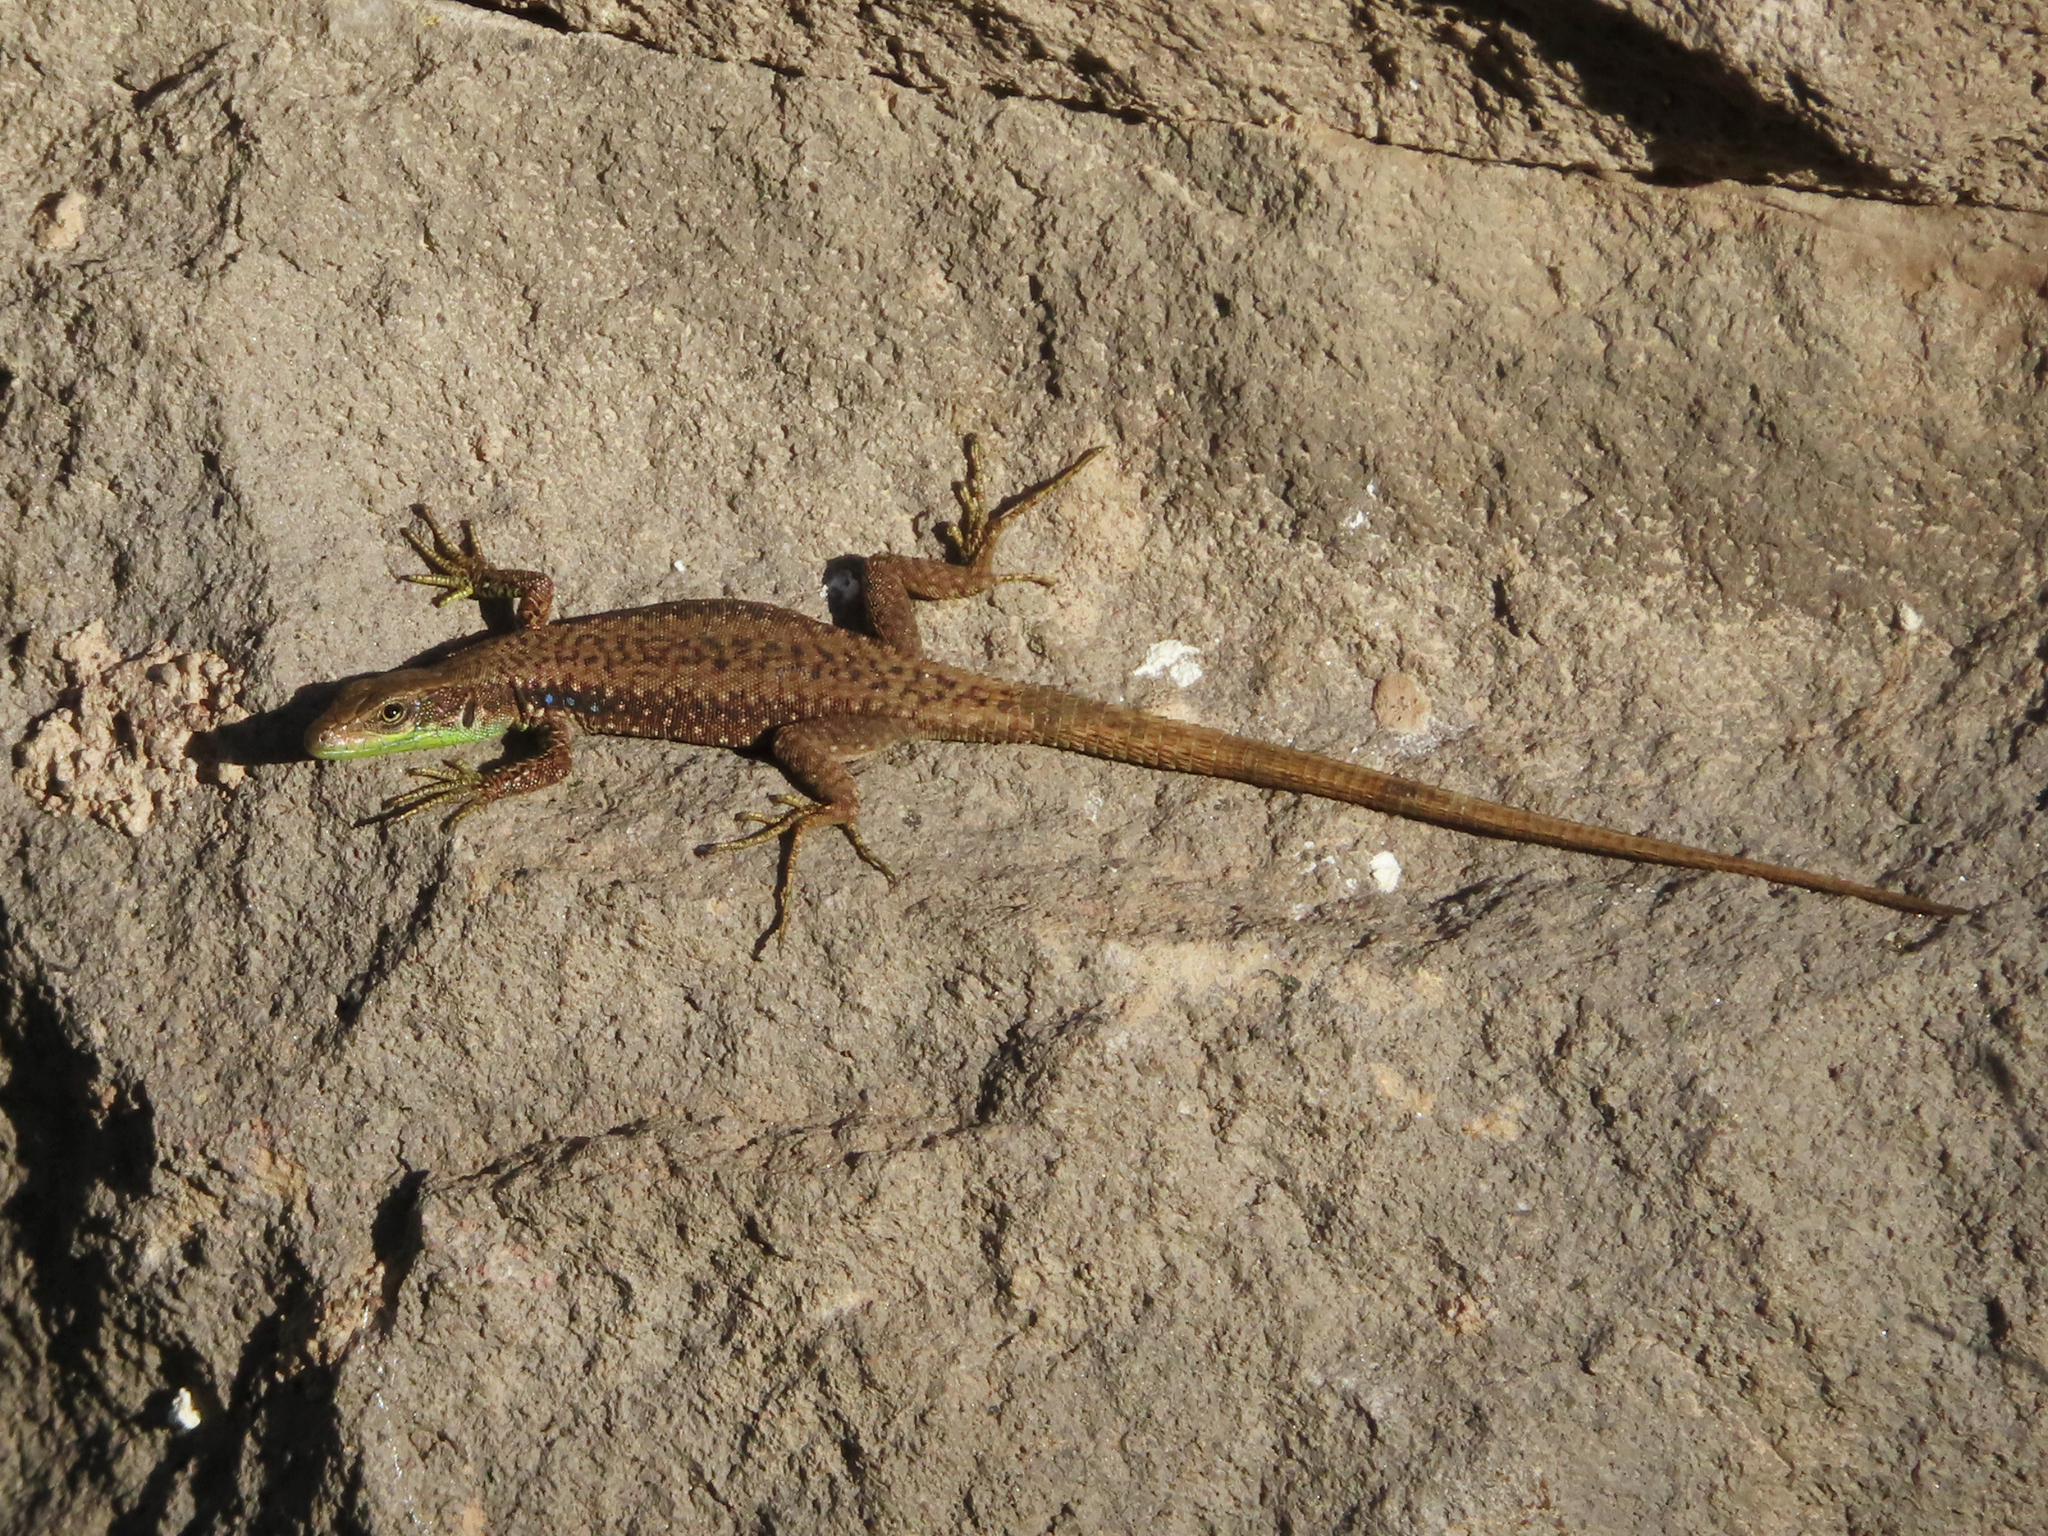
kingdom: Animalia
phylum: Chordata
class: Squamata
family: Lacertidae
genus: Darevskia
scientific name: Darevskia raddei
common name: Radde's lizard
